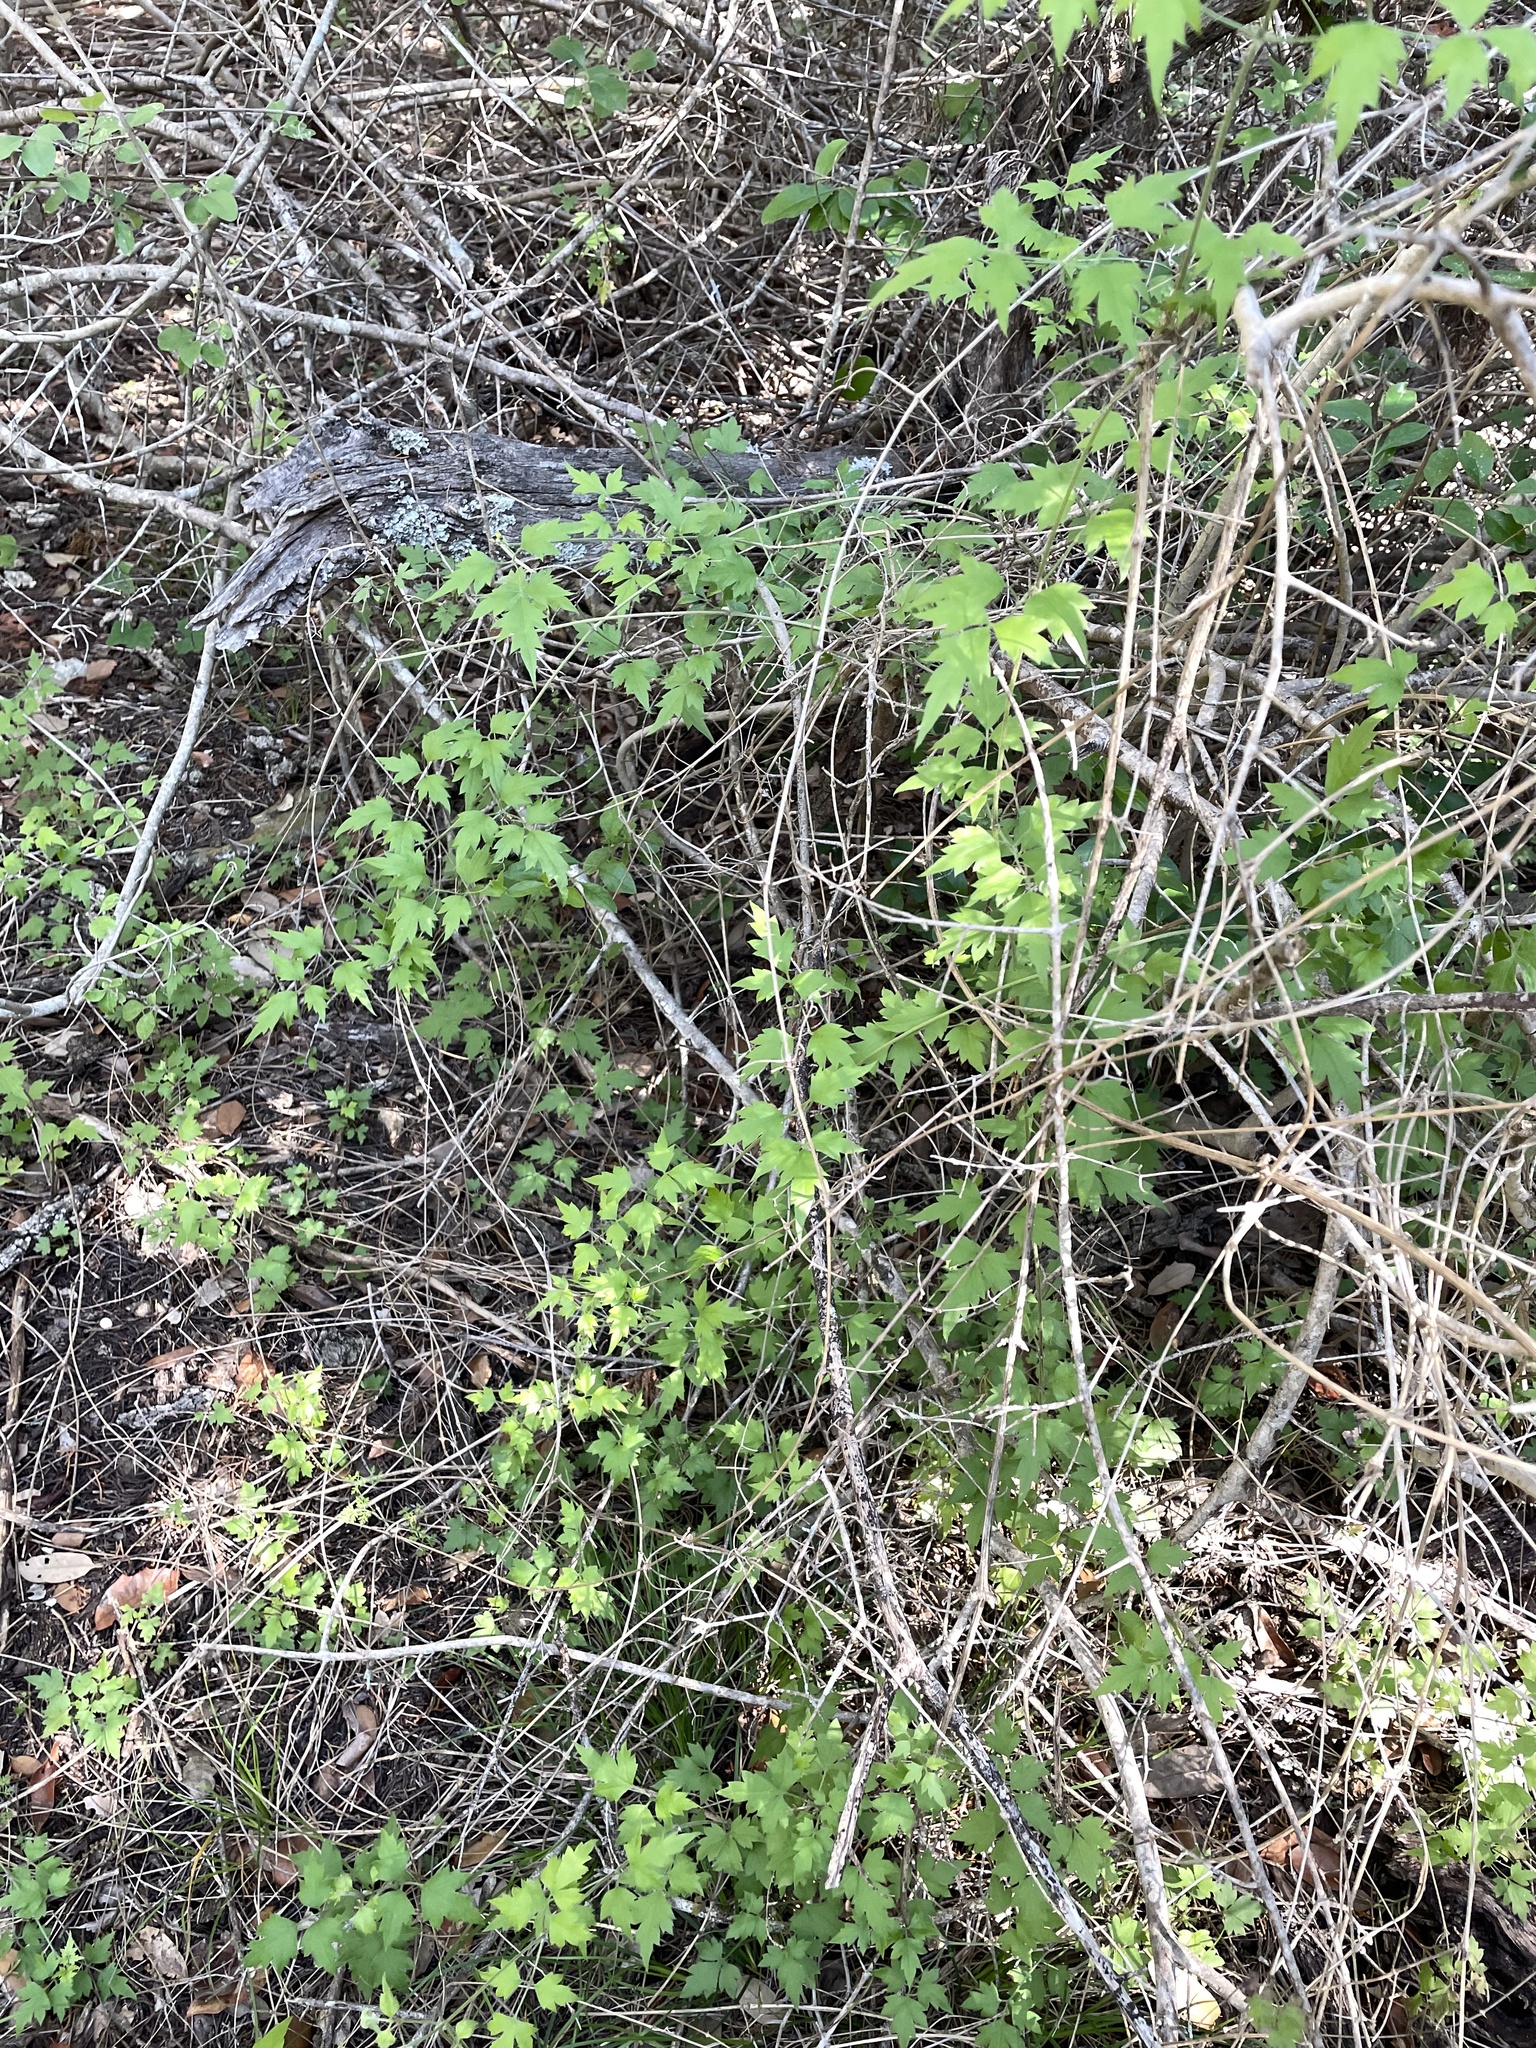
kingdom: Plantae
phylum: Tracheophyta
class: Magnoliopsida
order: Ranunculales
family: Ranunculaceae
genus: Clematis
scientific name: Clematis drummondii
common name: Texas virgin's bower
